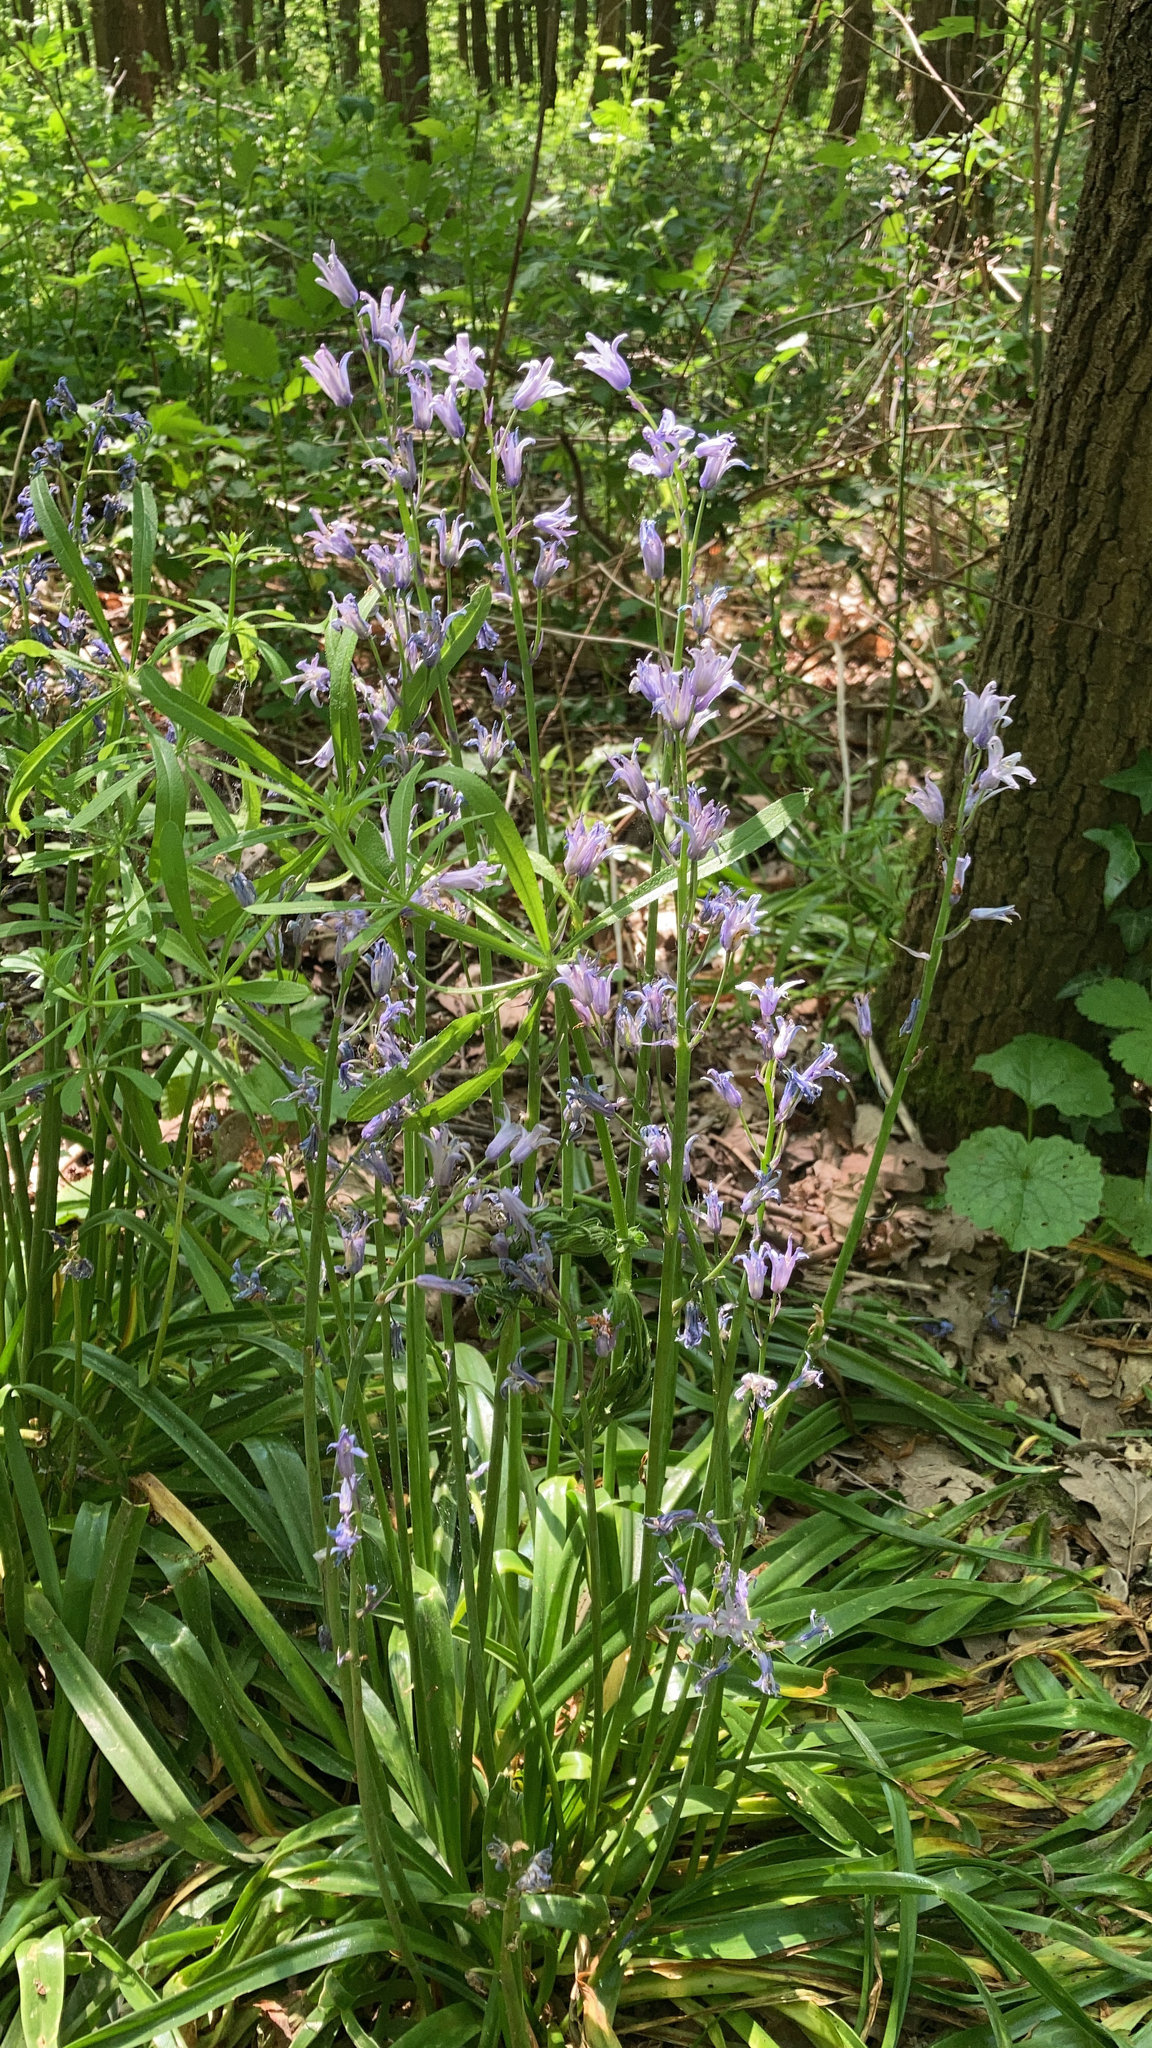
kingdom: Plantae
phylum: Tracheophyta
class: Liliopsida
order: Asparagales
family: Asparagaceae
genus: Hyacinthoides
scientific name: Hyacinthoides massartiana
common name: Hyacinthoides
